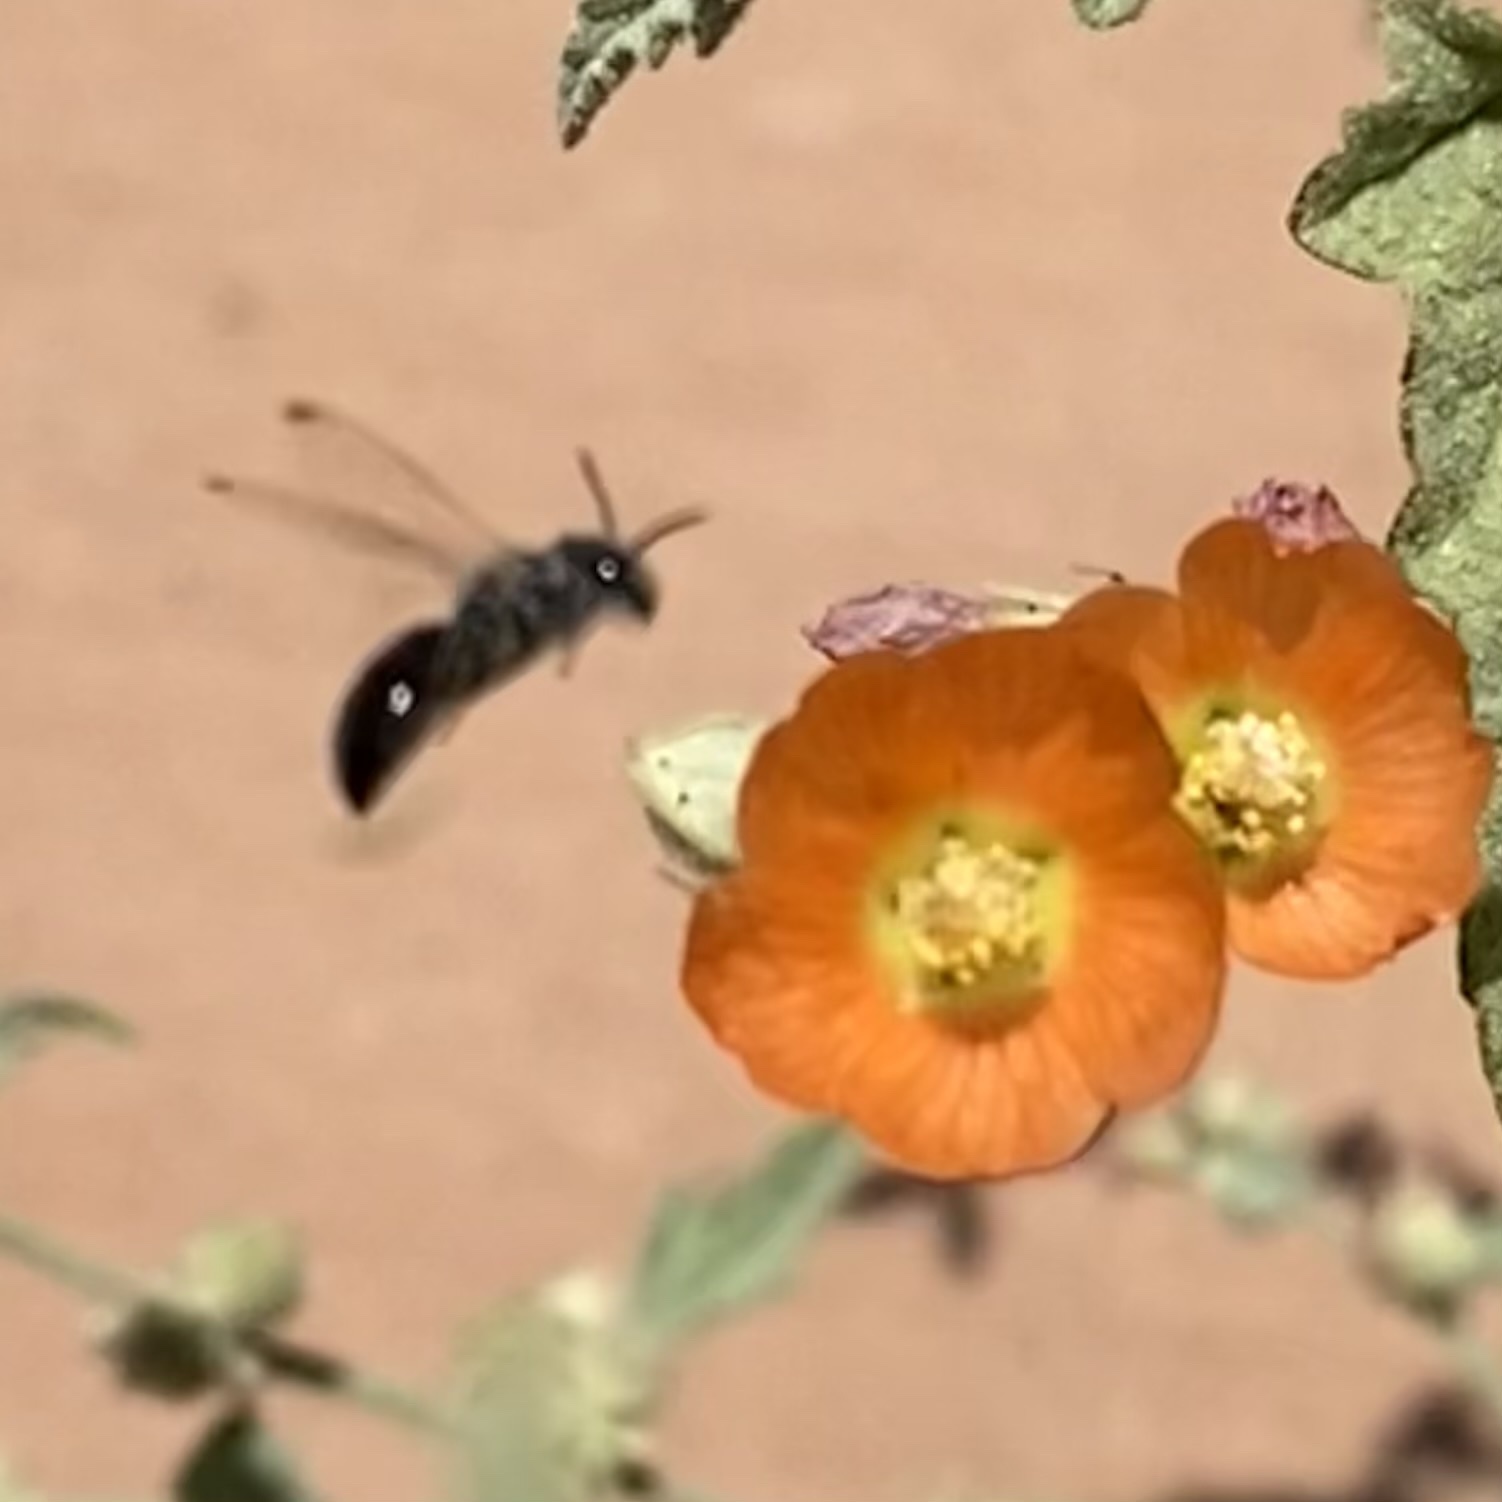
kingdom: Animalia
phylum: Arthropoda
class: Insecta
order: Hymenoptera
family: Andrenidae
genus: Calliopsis
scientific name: Calliopsis subalpina
